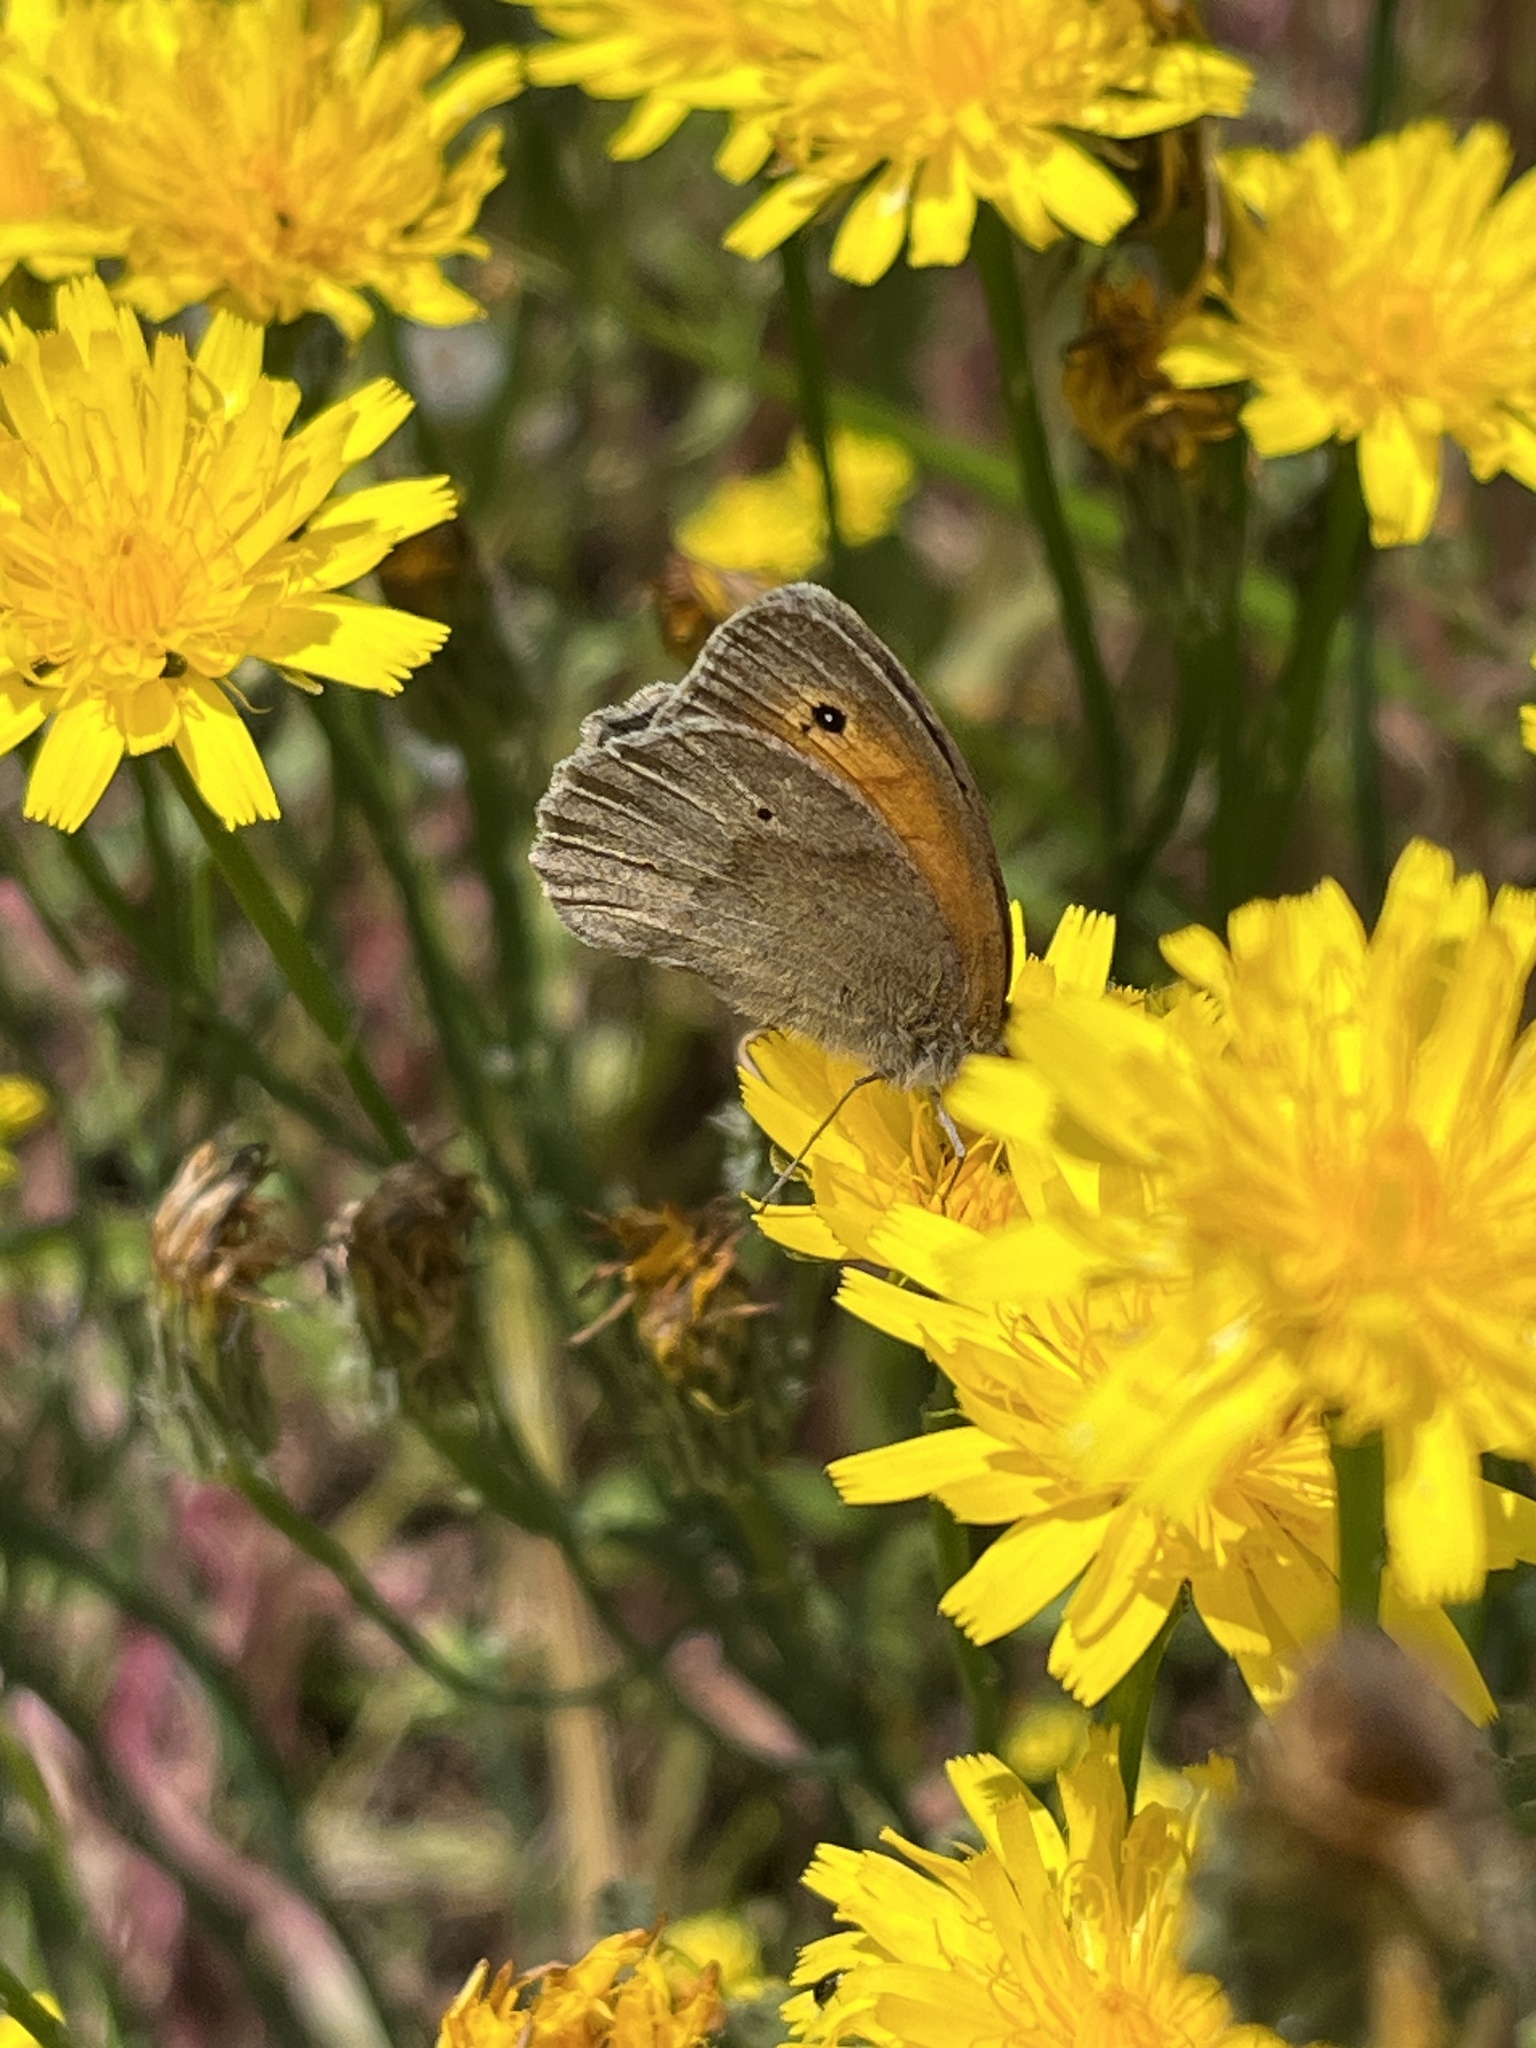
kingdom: Animalia
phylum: Arthropoda
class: Insecta
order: Lepidoptera
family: Nymphalidae
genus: Maniola
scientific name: Maniola jurtina
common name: Meadow brown
